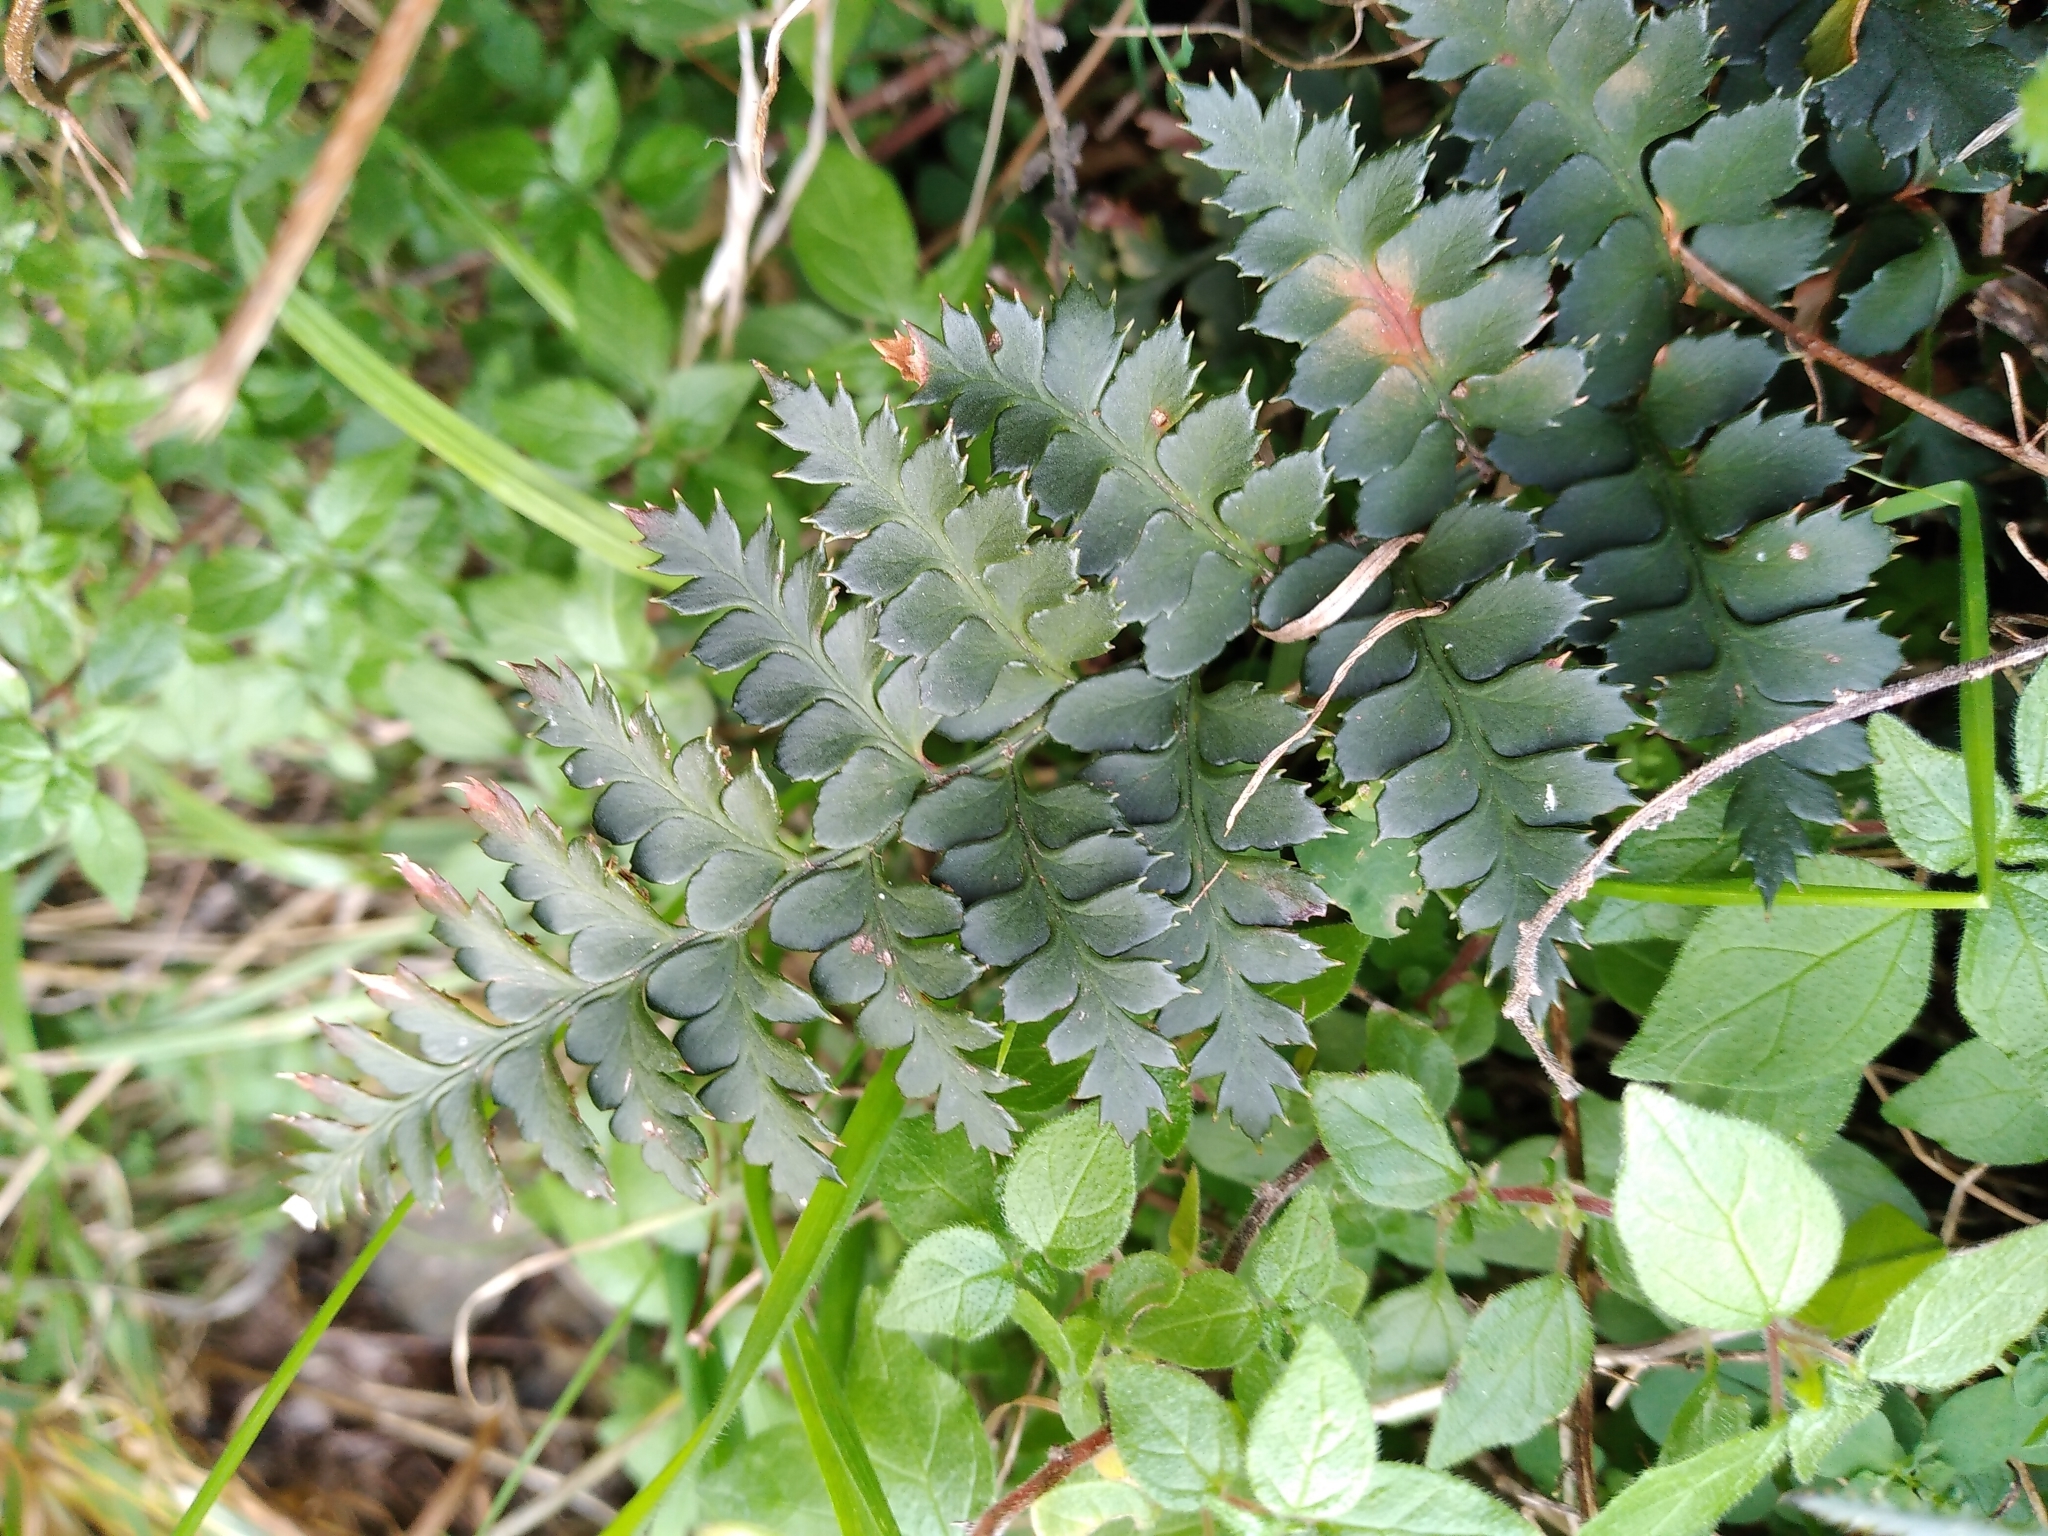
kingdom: Plantae
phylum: Tracheophyta
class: Polypodiopsida
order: Polypodiales
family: Dryopteridaceae
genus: Polystichum
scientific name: Polystichum oculatum
